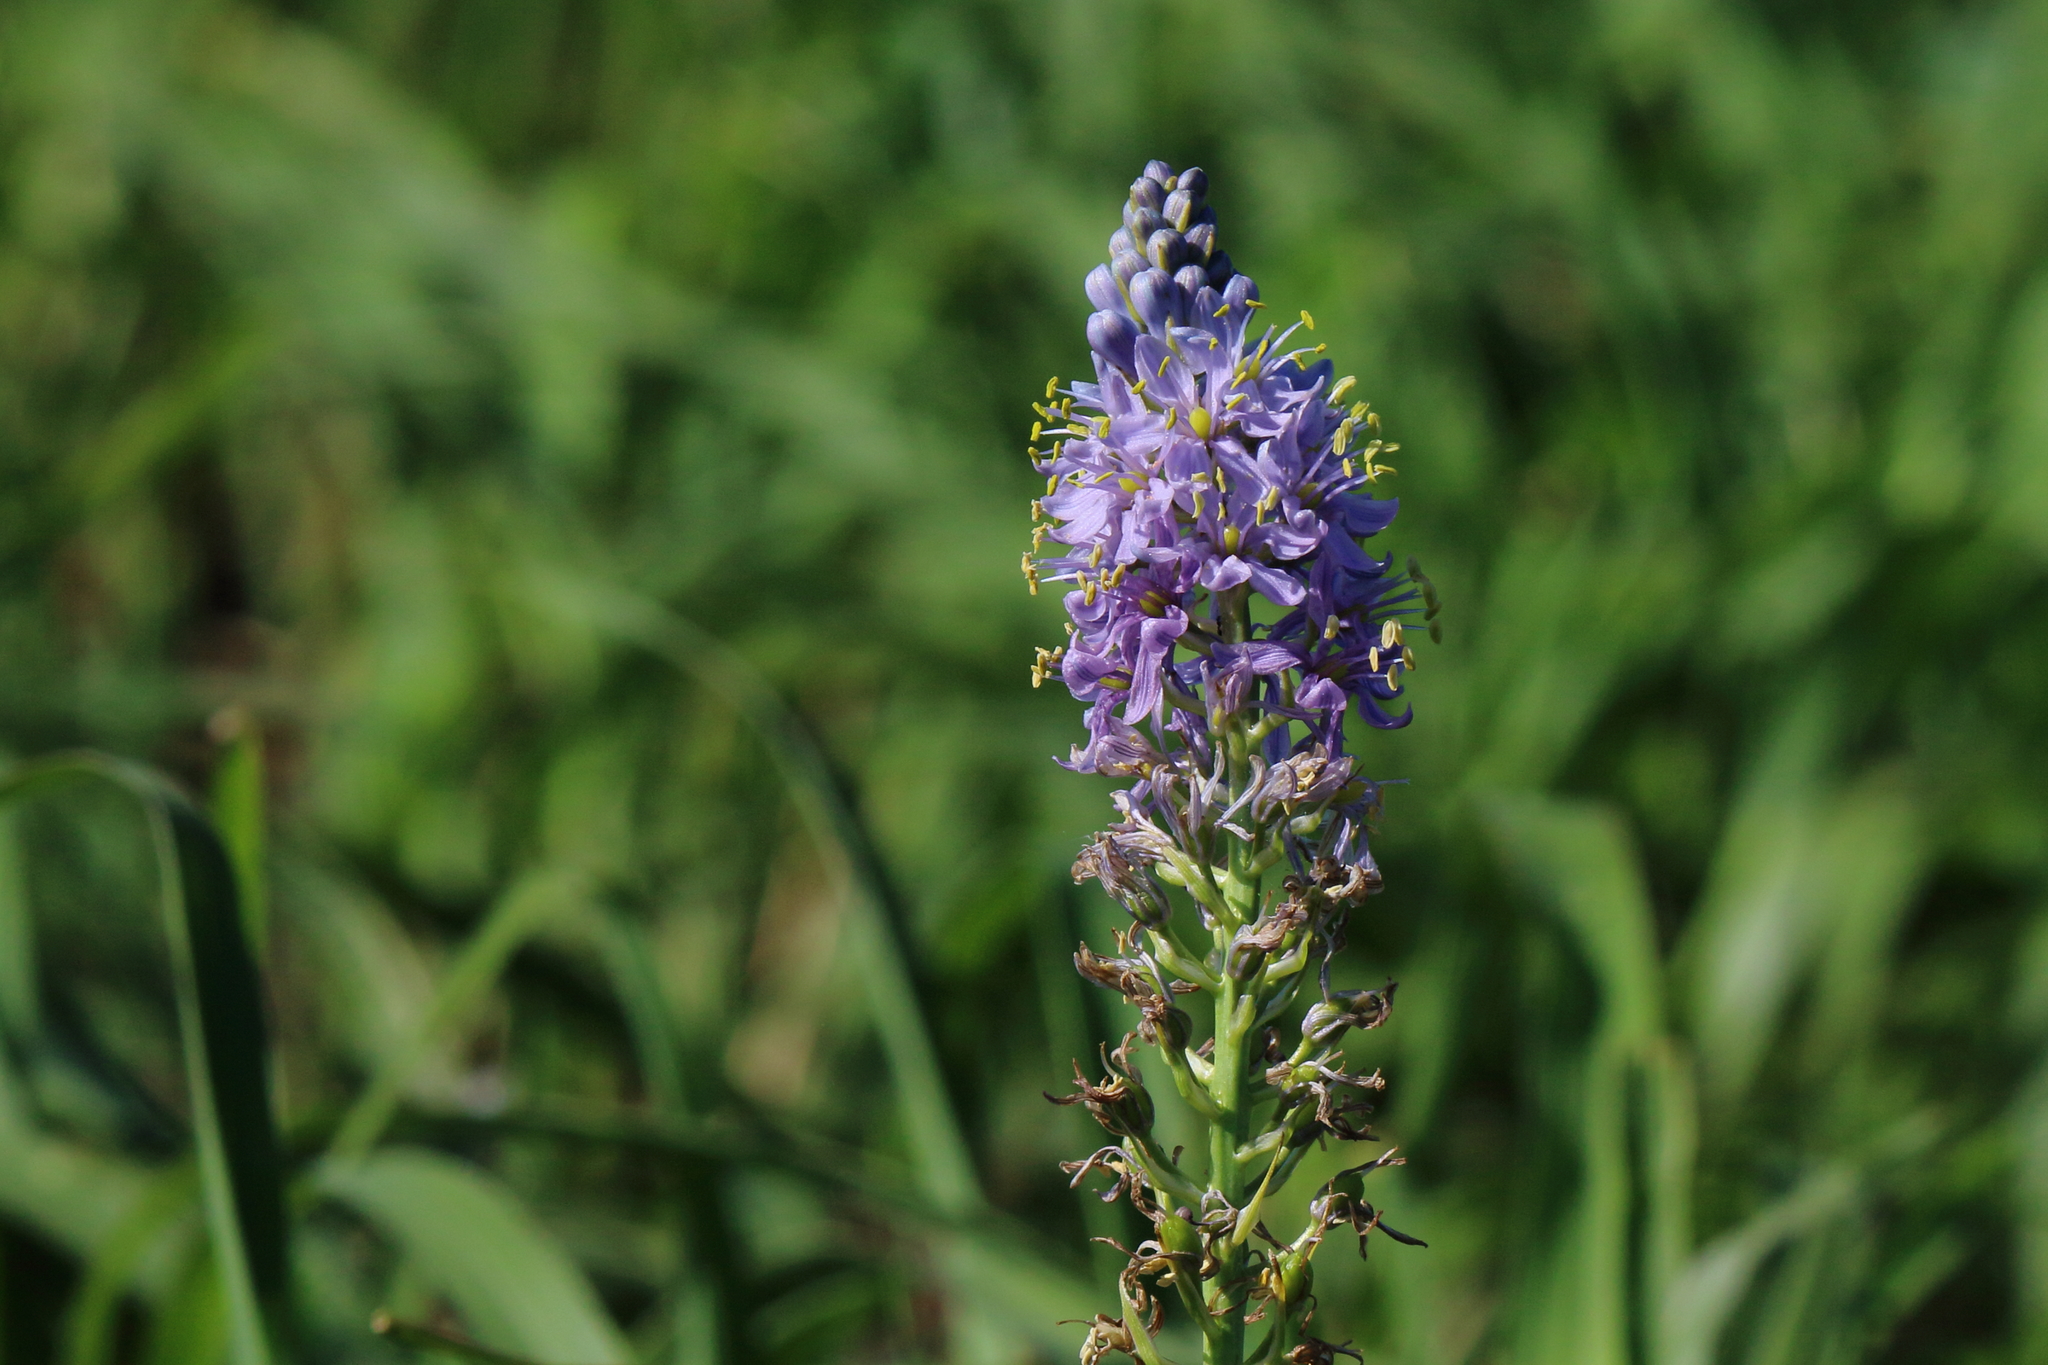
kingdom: Plantae
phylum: Tracheophyta
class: Liliopsida
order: Asparagales
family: Asparagaceae
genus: Camassia
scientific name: Camassia scilloides
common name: Wild hyacinth
